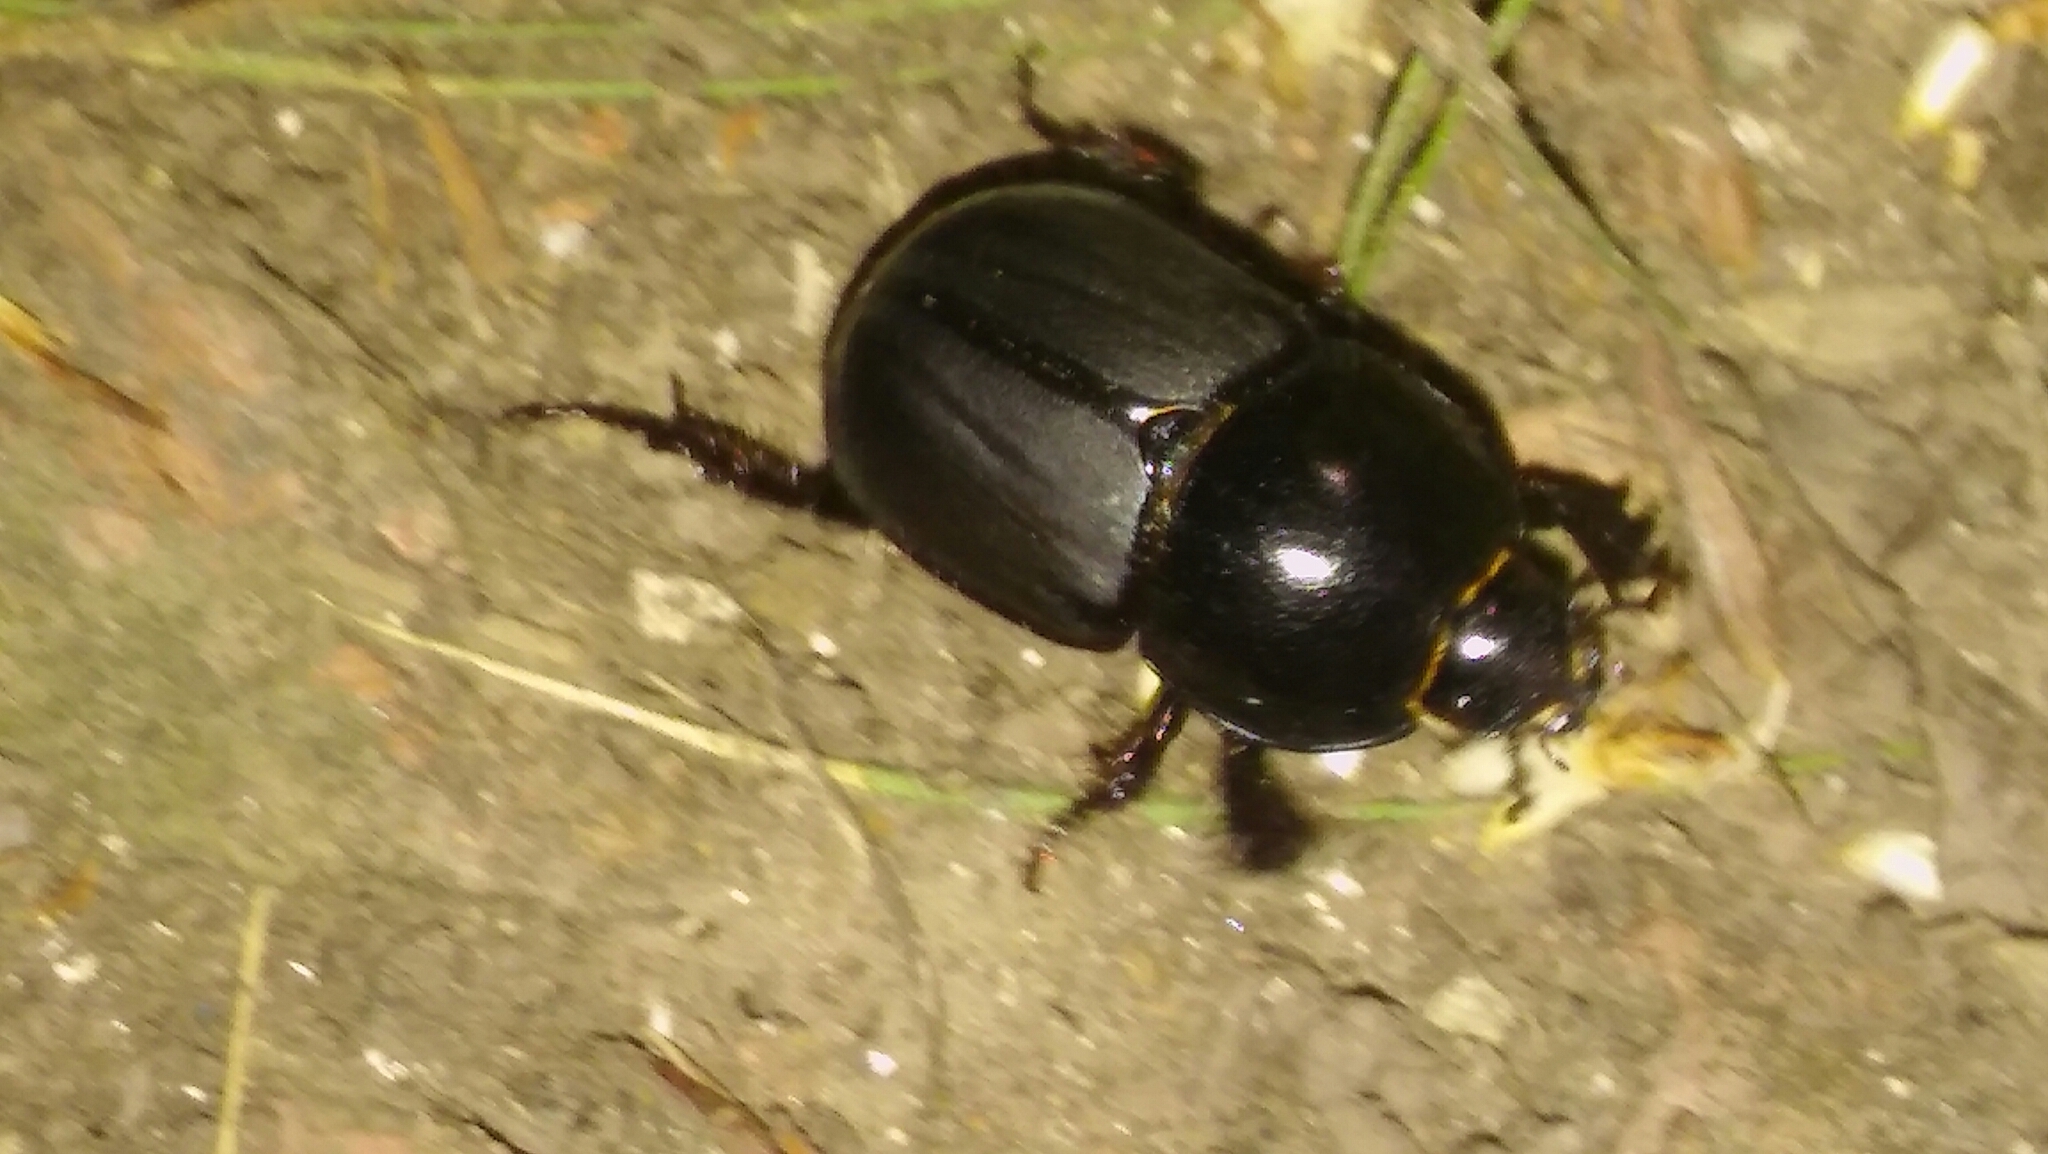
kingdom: Animalia
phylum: Arthropoda
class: Insecta
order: Coleoptera
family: Scarabaeidae
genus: Diloboderus
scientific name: Diloboderus abderus
